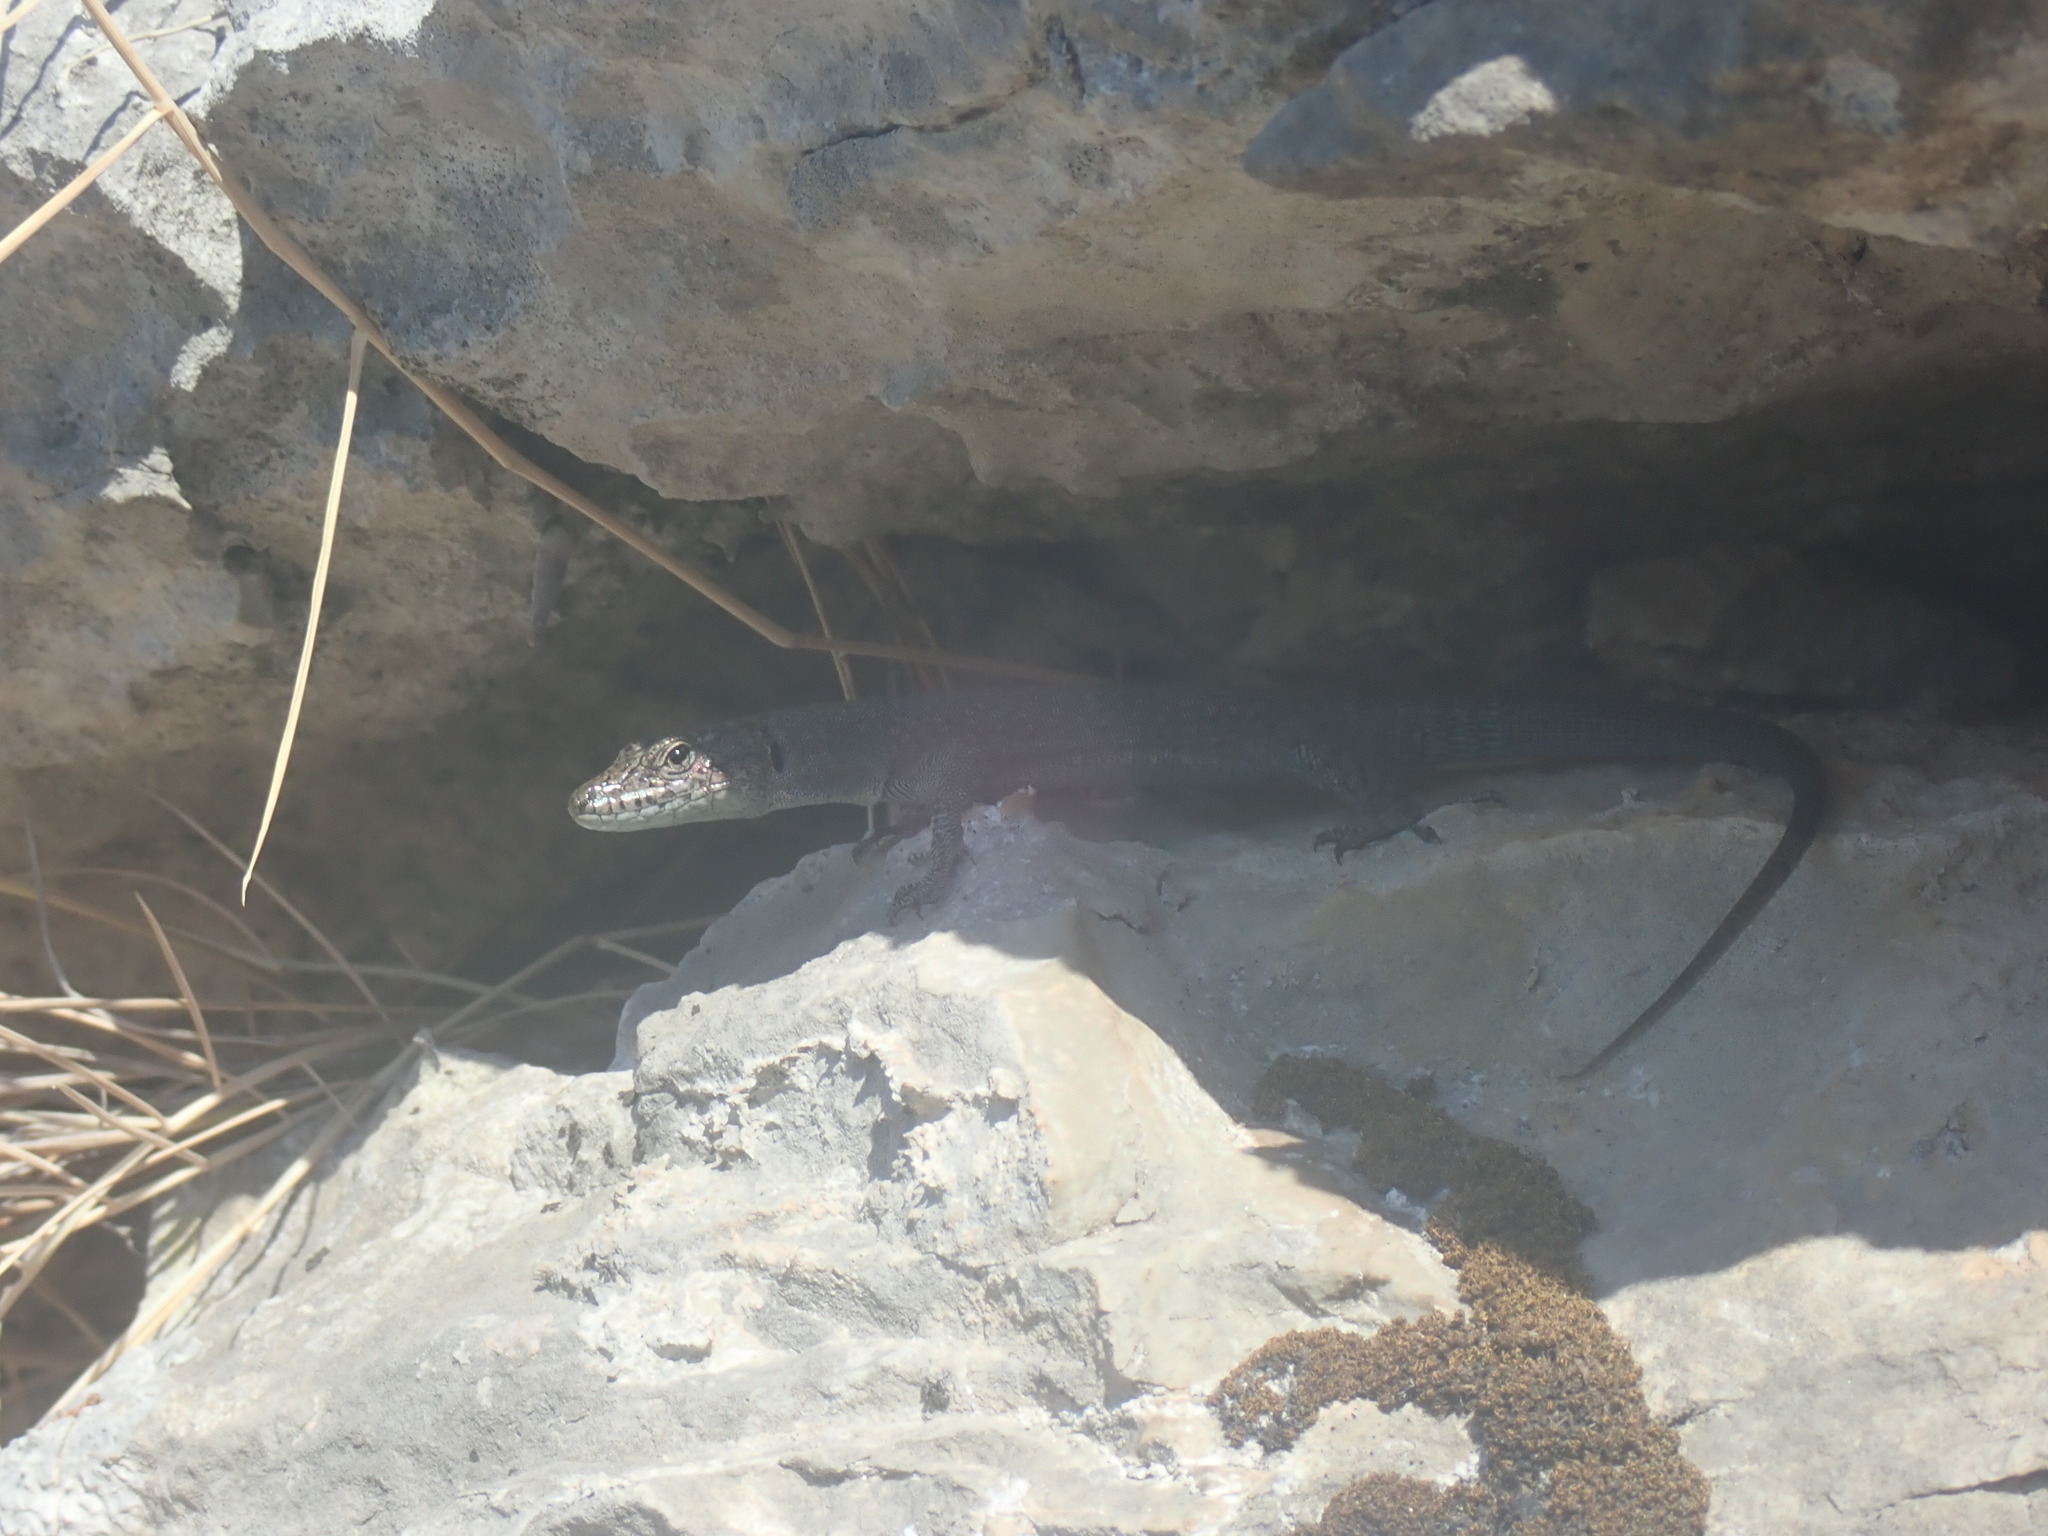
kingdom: Animalia
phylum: Chordata
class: Squamata
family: Lacertidae
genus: Dalmatolacerta
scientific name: Dalmatolacerta oxycephala
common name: Sharp-snouted rock lizard
